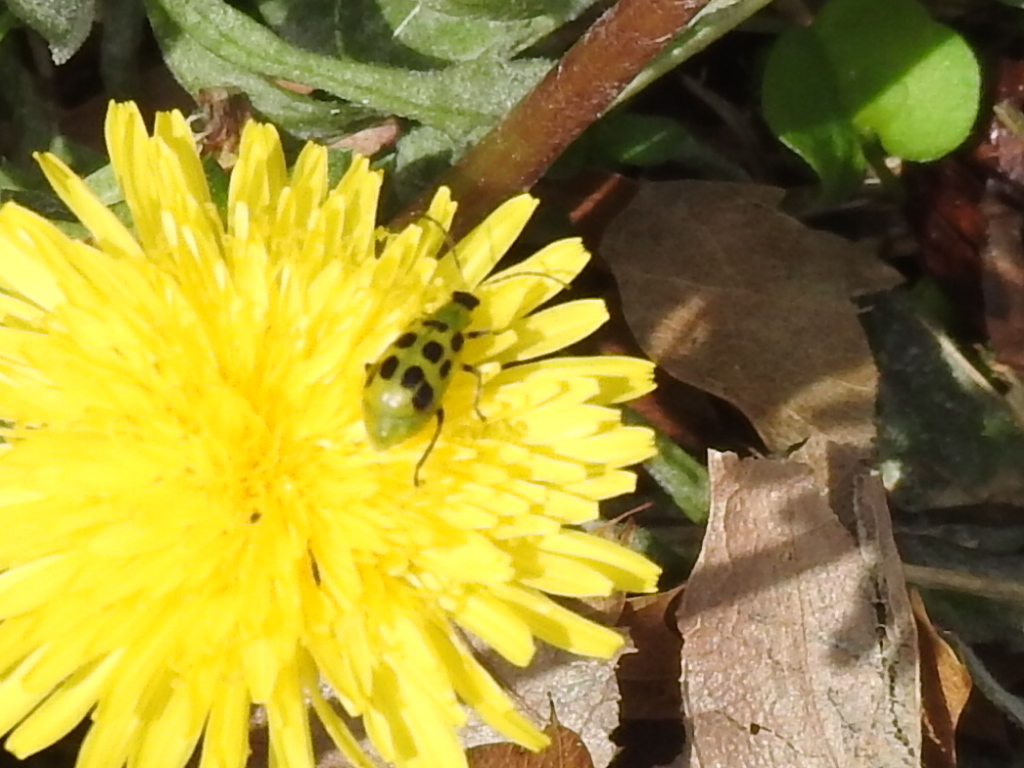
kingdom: Animalia
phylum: Arthropoda
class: Insecta
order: Coleoptera
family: Chrysomelidae
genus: Diabrotica
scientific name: Diabrotica undecimpunctata
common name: Spotted cucumber beetle
